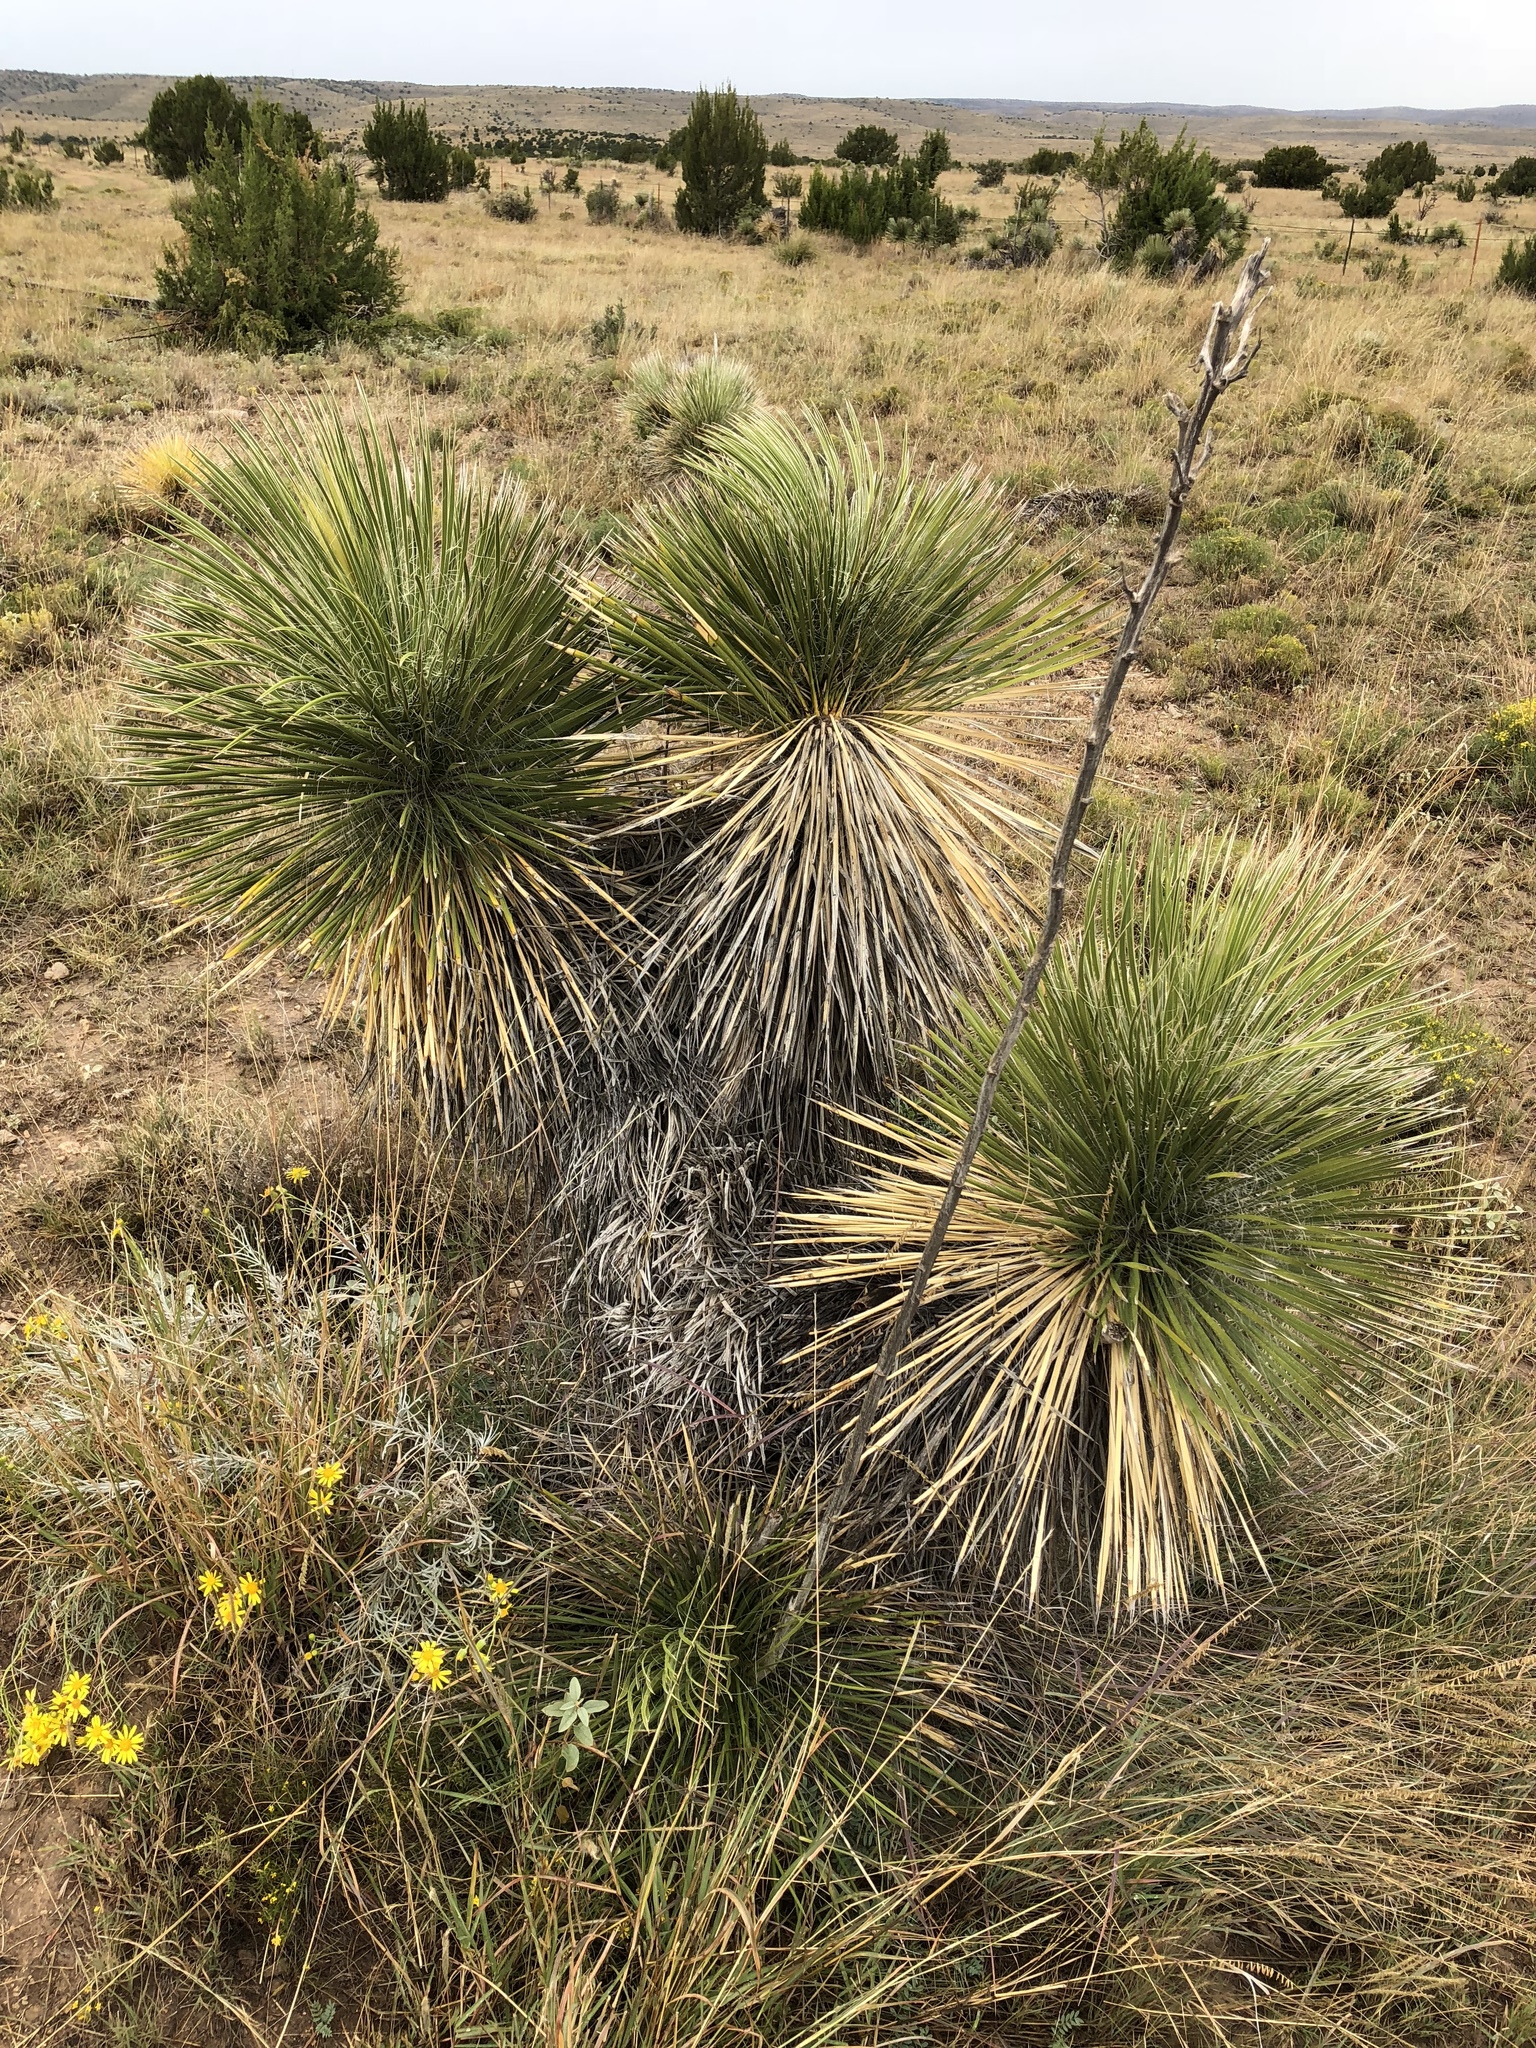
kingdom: Plantae
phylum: Tracheophyta
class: Liliopsida
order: Asparagales
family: Asparagaceae
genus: Yucca
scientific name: Yucca elata
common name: Palmella
